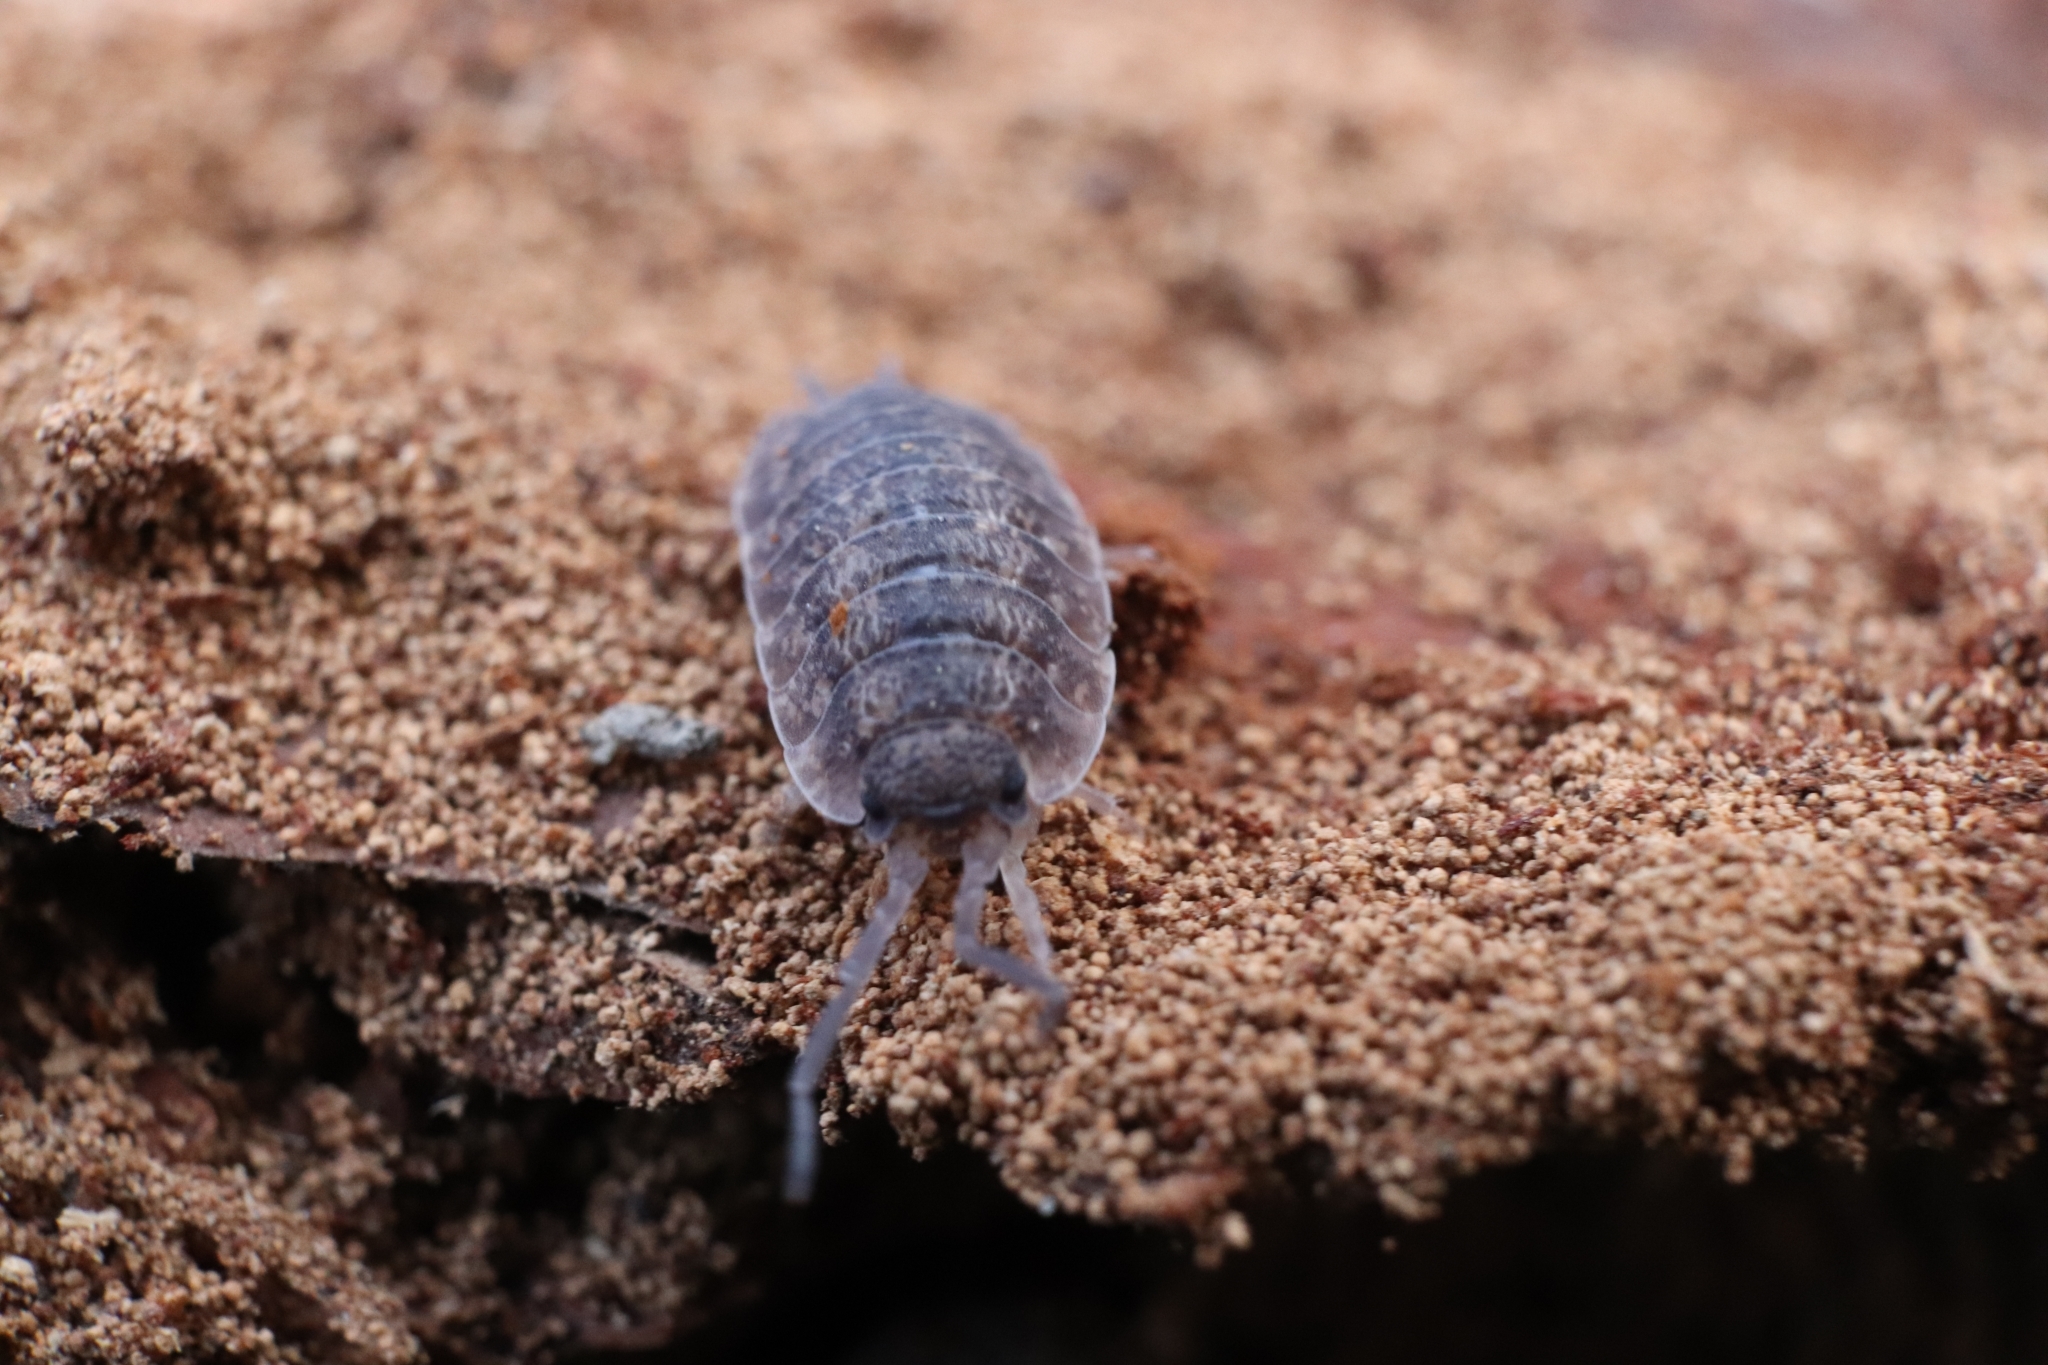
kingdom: Animalia
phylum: Arthropoda
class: Malacostraca
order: Isopoda
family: Porcellionidae
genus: Porcellio
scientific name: Porcellio scaber
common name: Common rough woodlouse
